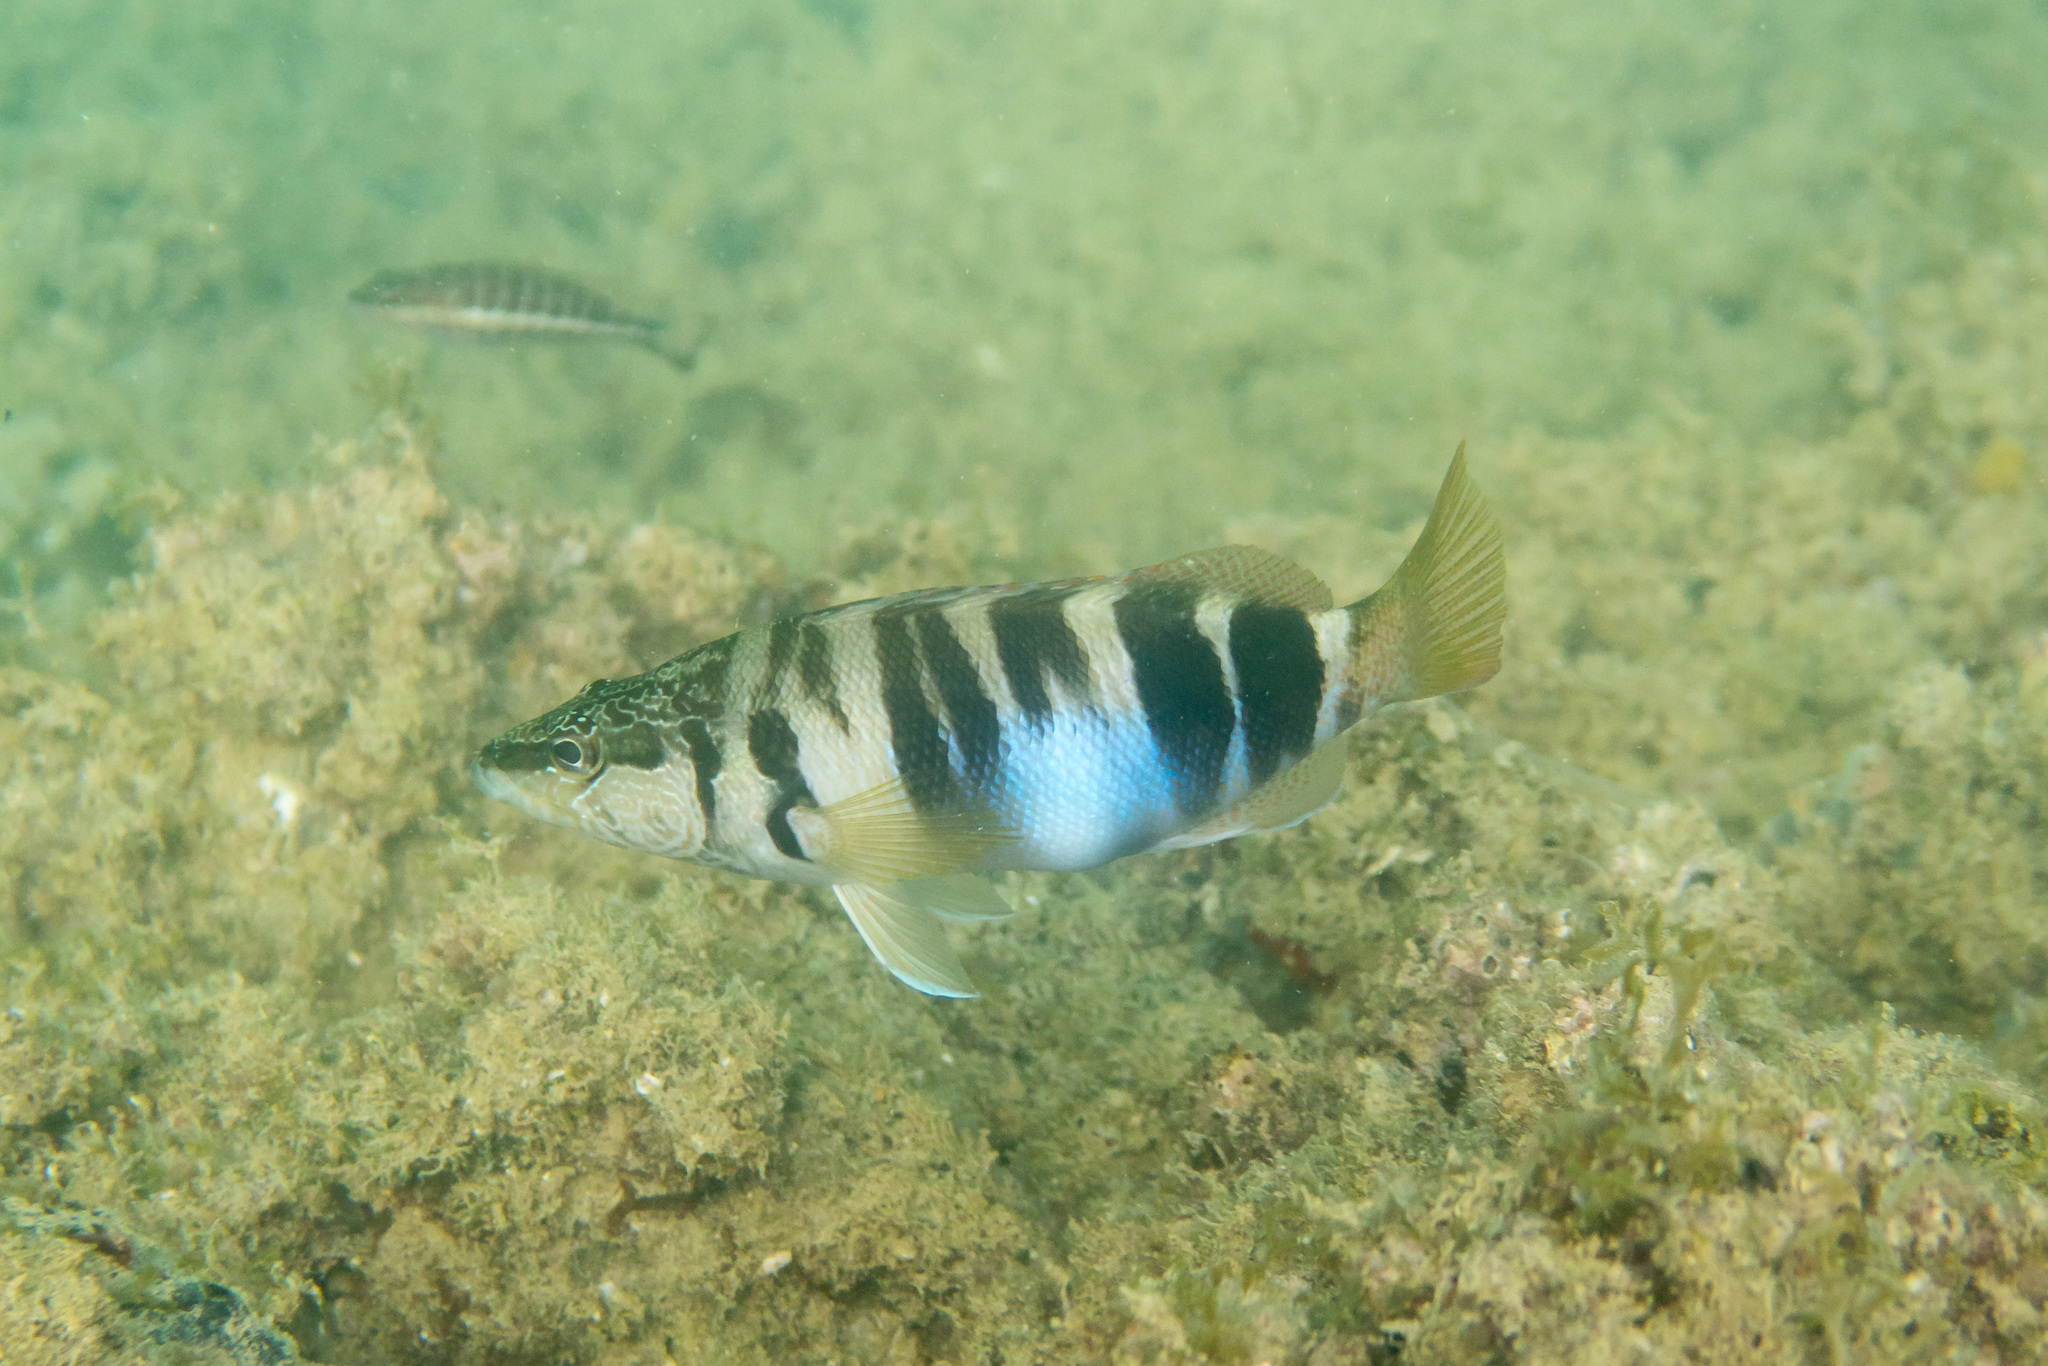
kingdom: Animalia
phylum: Chordata
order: Perciformes
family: Serranidae
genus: Serranus
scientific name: Serranus scriba
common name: Painted comber
